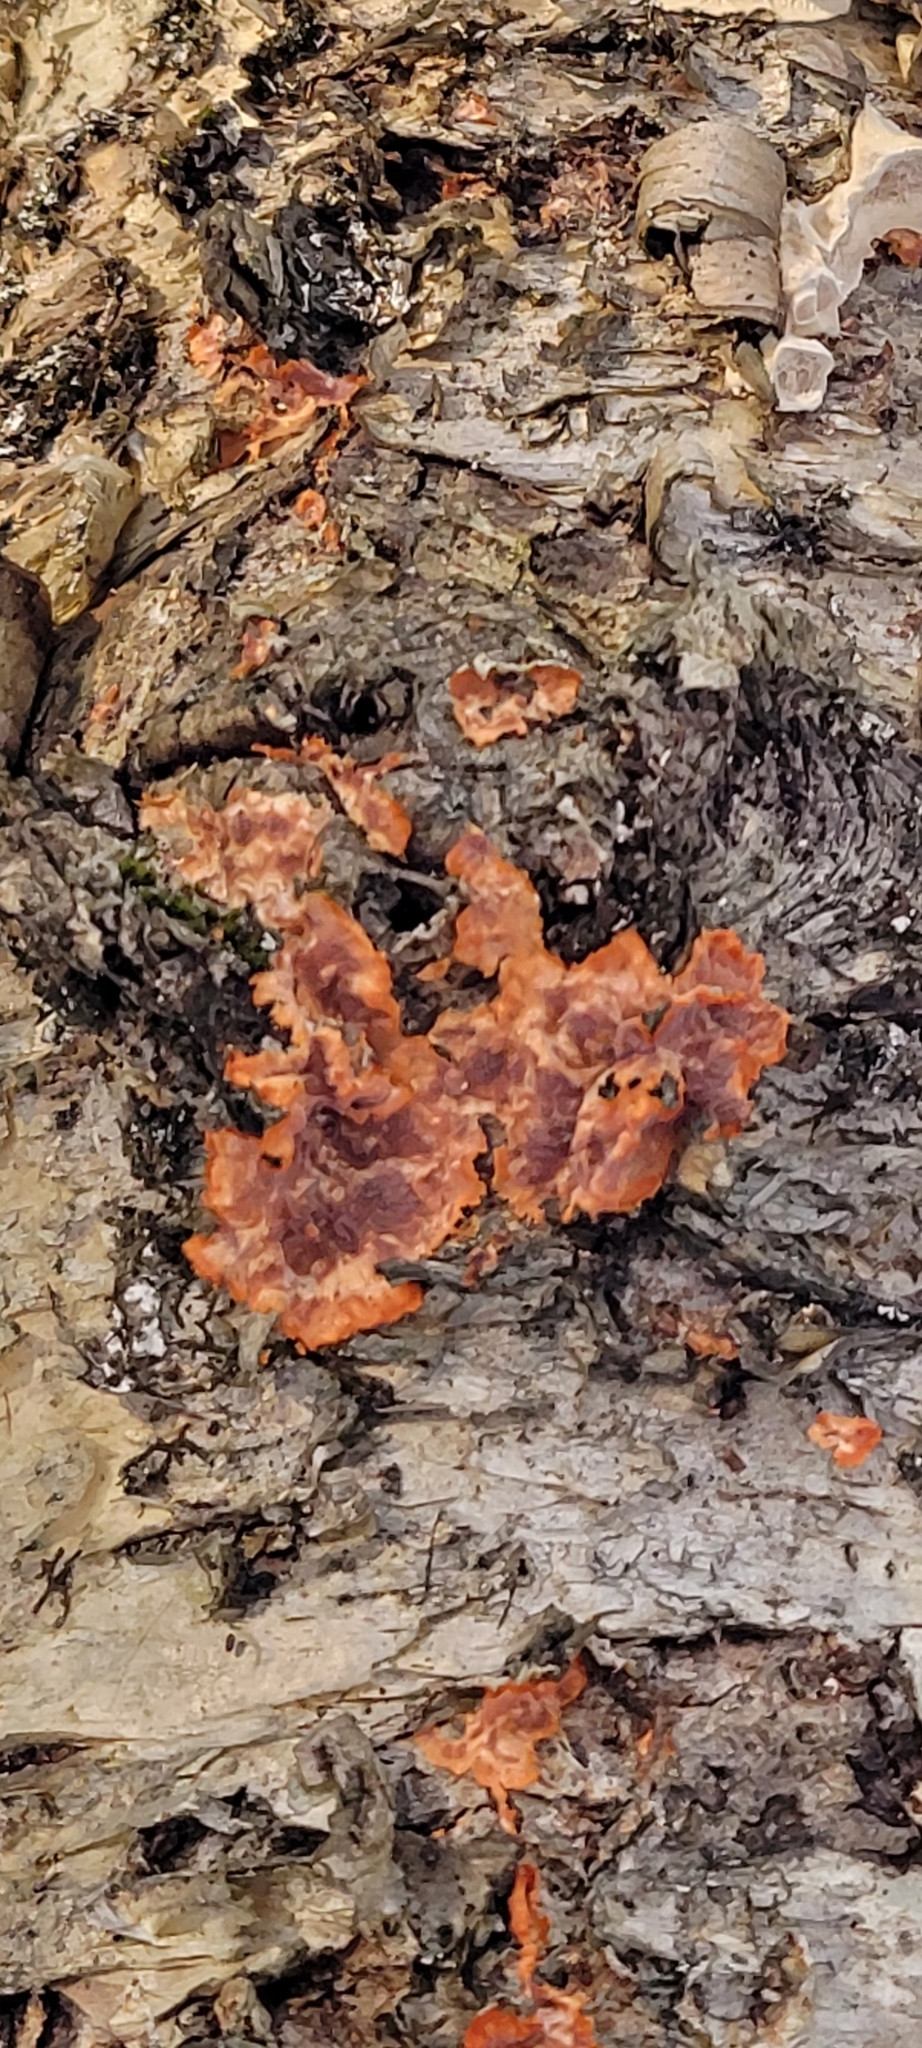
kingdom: Fungi
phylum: Basidiomycota
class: Agaricomycetes
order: Polyporales
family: Meruliaceae
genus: Phlebia
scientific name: Phlebia radiata
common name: Wrinkled crust
